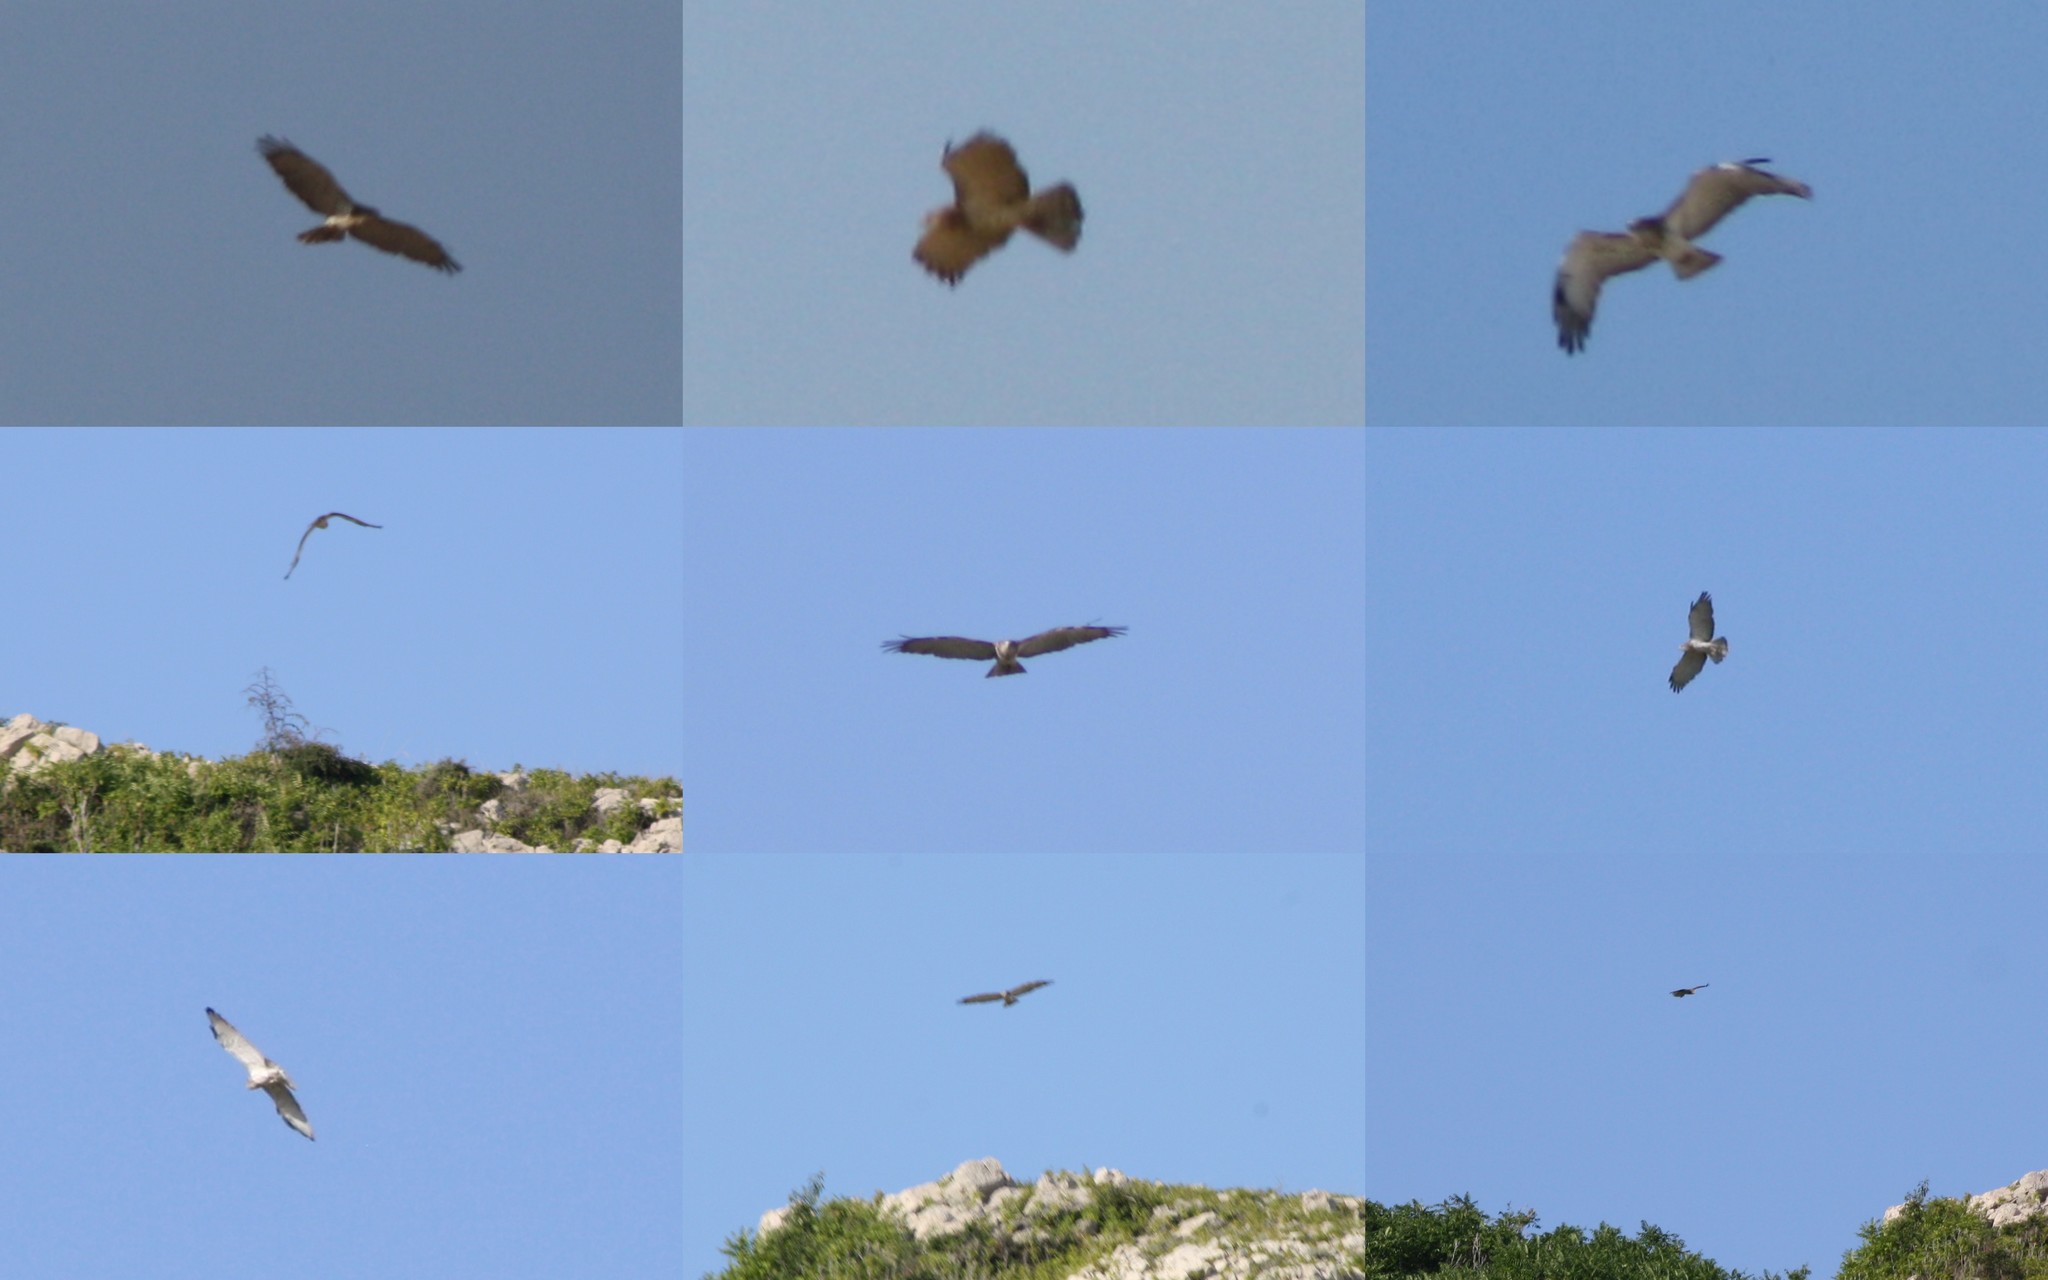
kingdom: Animalia
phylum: Chordata
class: Aves
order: Accipitriformes
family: Accipitridae
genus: Circaetus
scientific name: Circaetus gallicus
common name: Short-toed snake eagle
